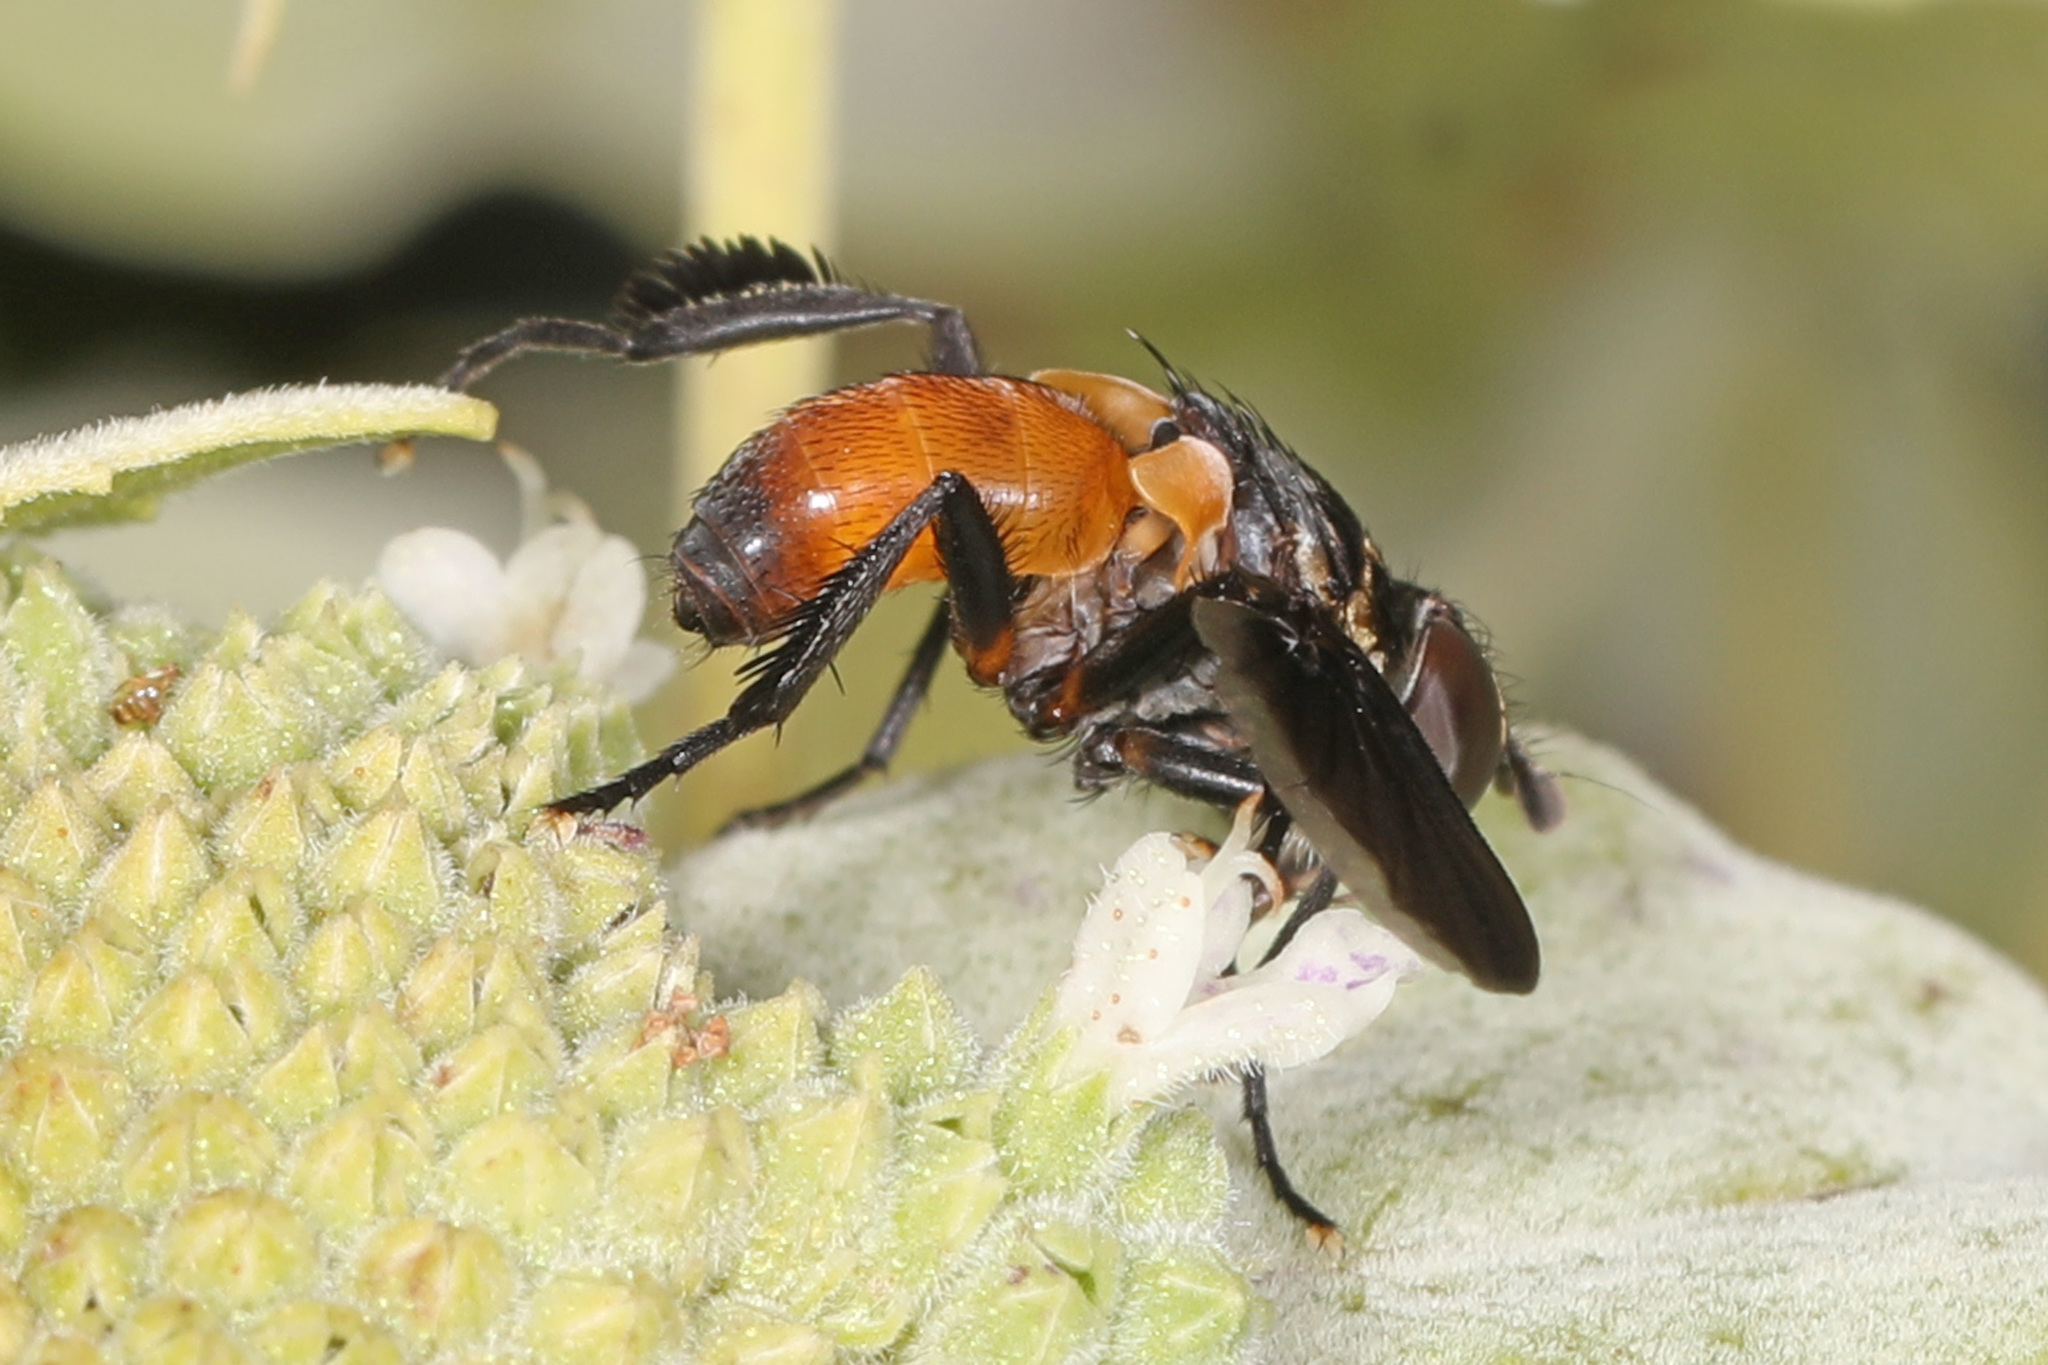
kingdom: Animalia
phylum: Arthropoda
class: Insecta
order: Diptera
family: Tachinidae
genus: Trichopoda
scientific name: Trichopoda pennipes
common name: Tachinid fly
